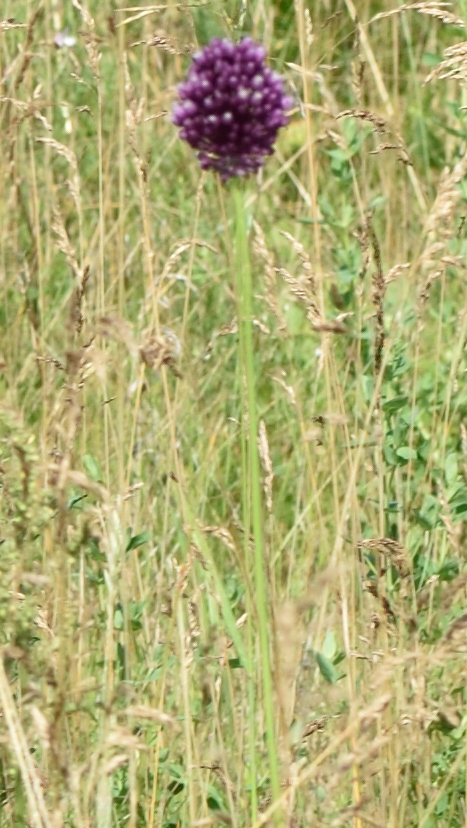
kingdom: Plantae
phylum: Tracheophyta
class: Liliopsida
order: Asparagales
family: Amaryllidaceae
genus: Allium
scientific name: Allium rotundum
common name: Sand leek
